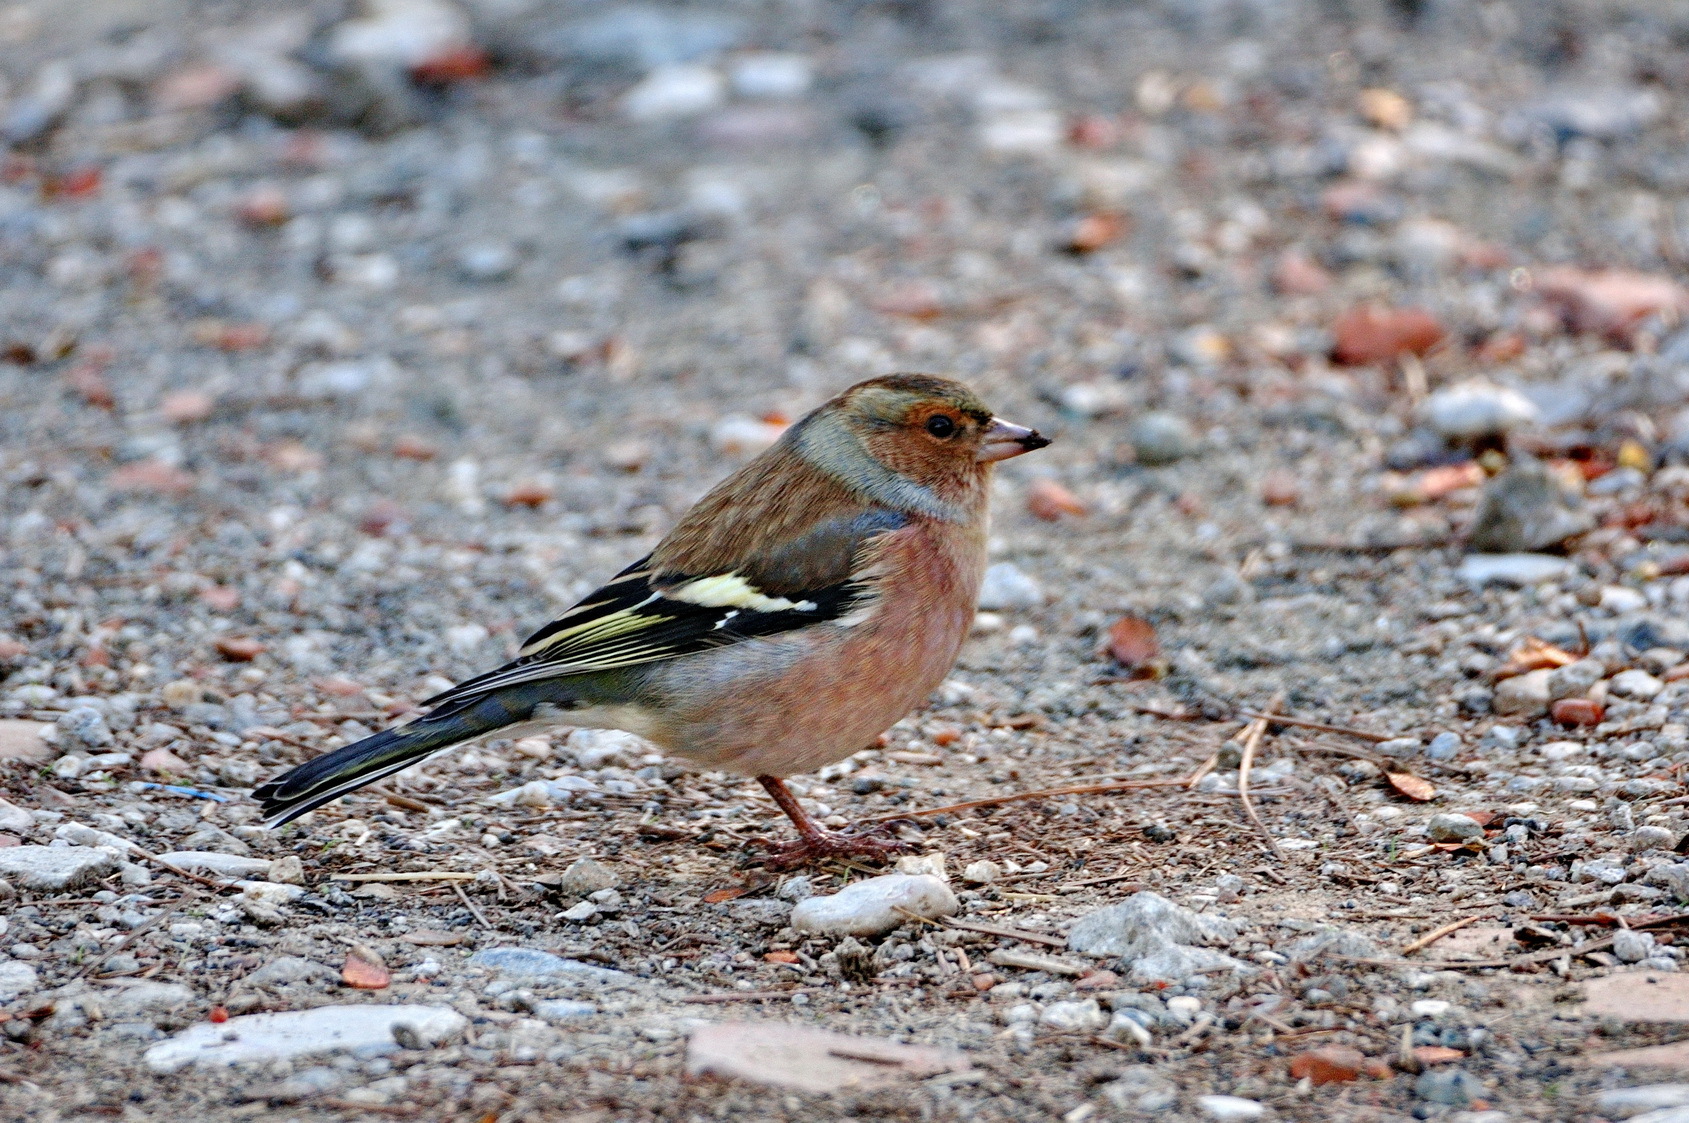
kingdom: Animalia
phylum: Chordata
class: Aves
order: Passeriformes
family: Fringillidae
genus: Fringilla
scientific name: Fringilla coelebs
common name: Common chaffinch
